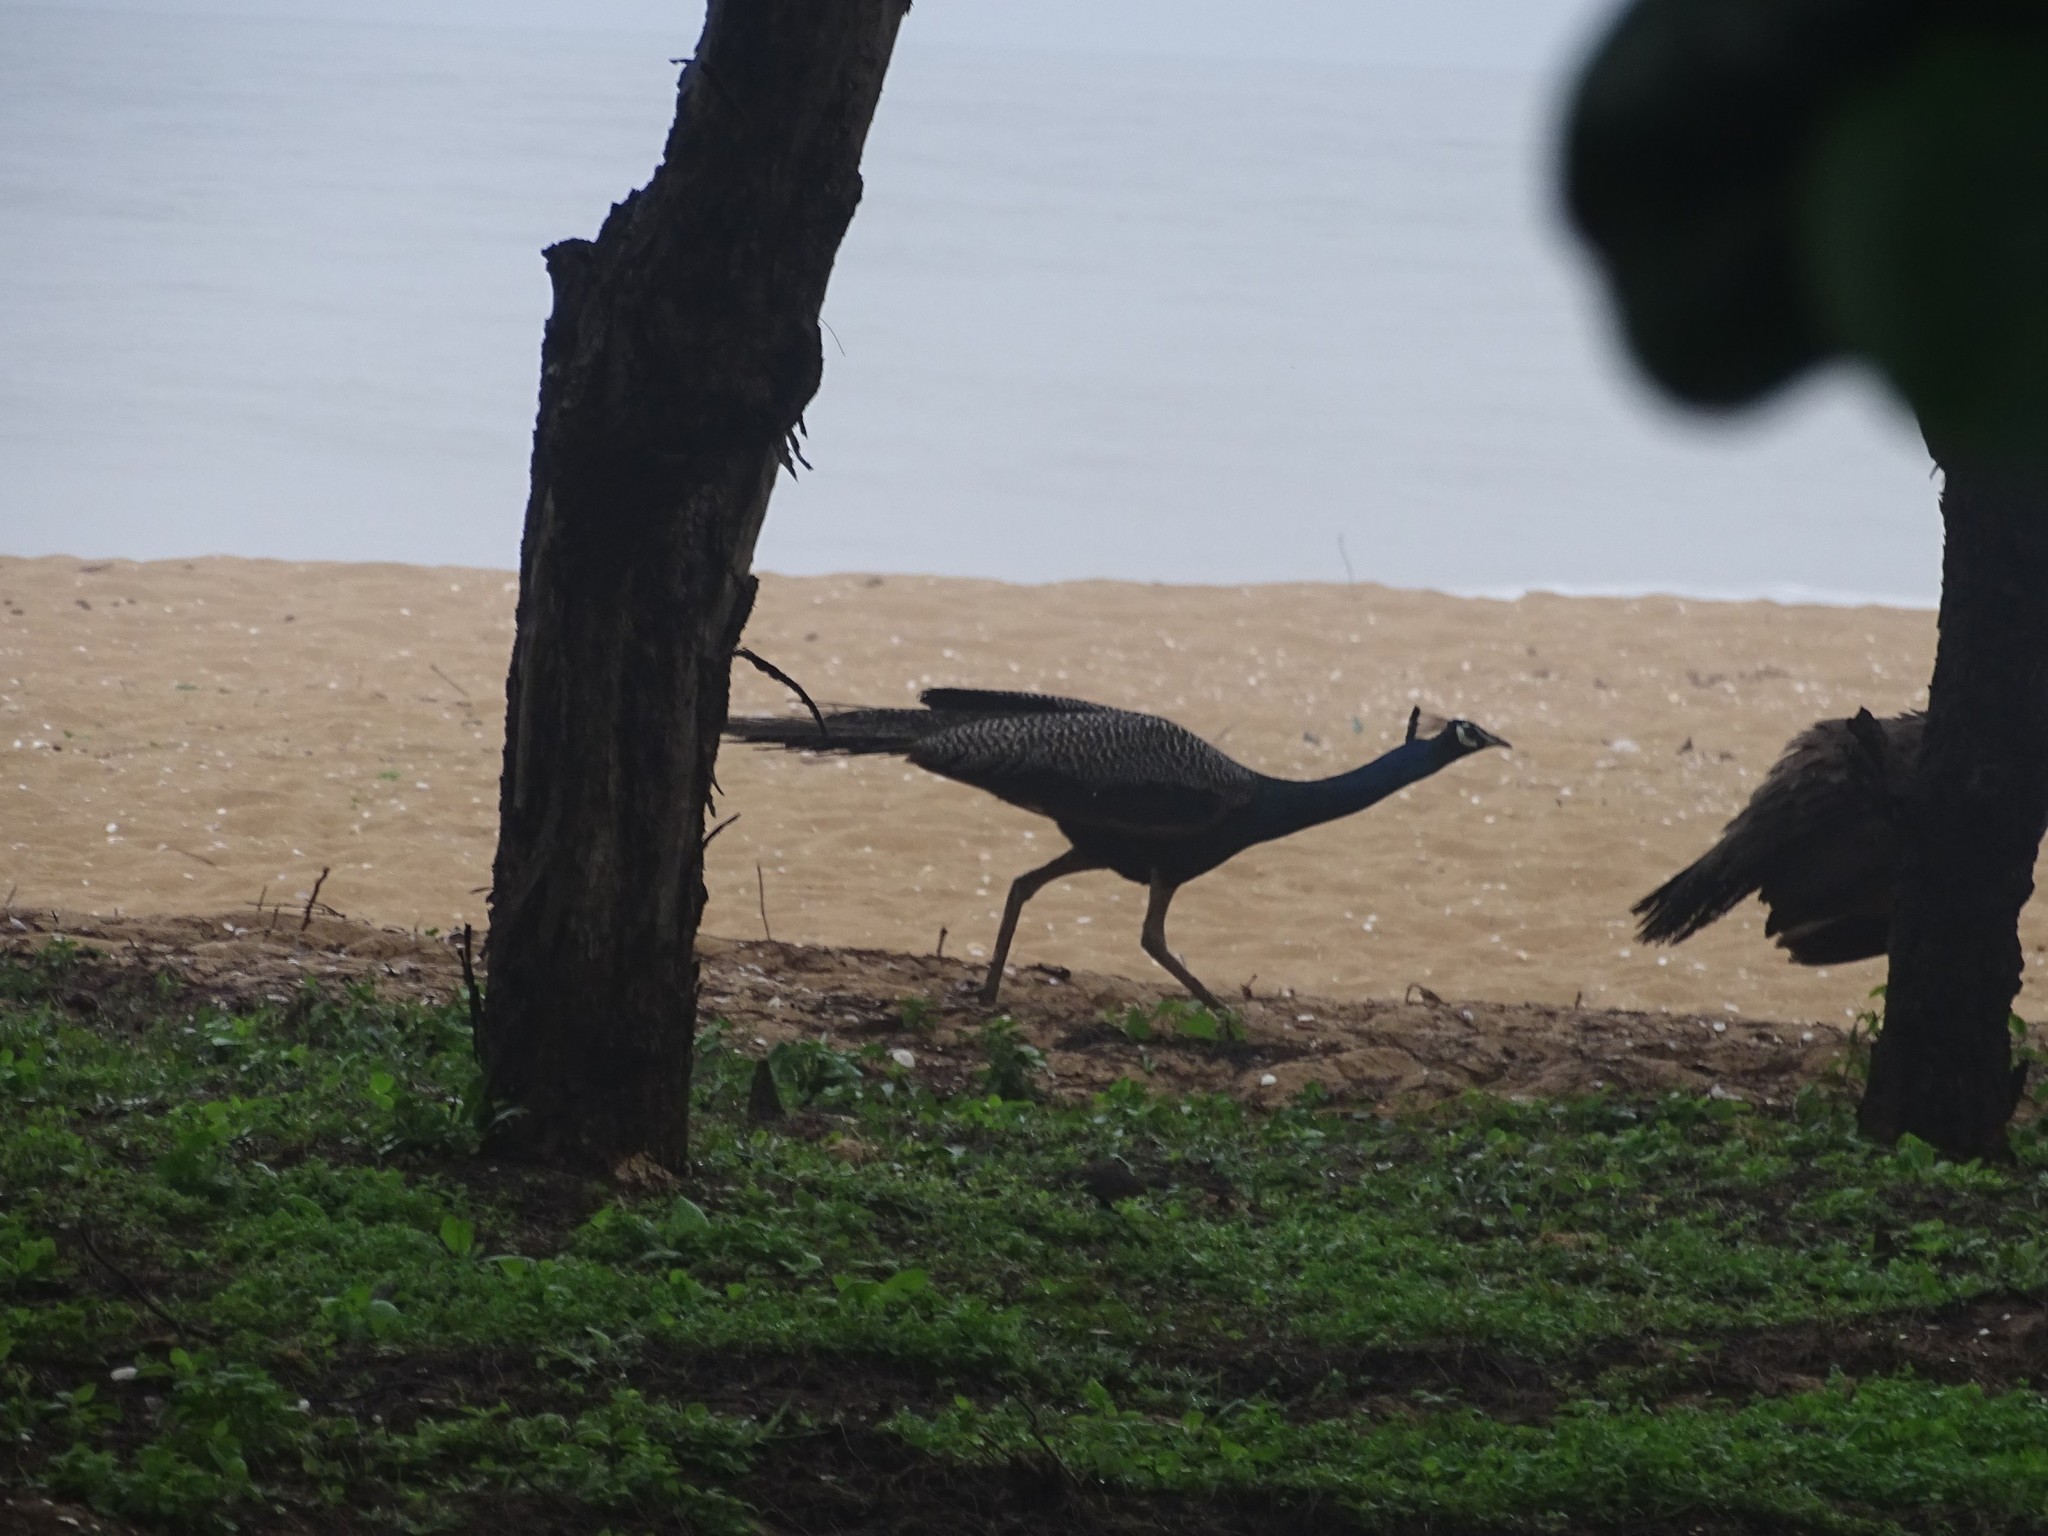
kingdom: Animalia
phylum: Chordata
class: Aves
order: Galliformes
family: Phasianidae
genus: Pavo
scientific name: Pavo cristatus
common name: Indian peafowl
